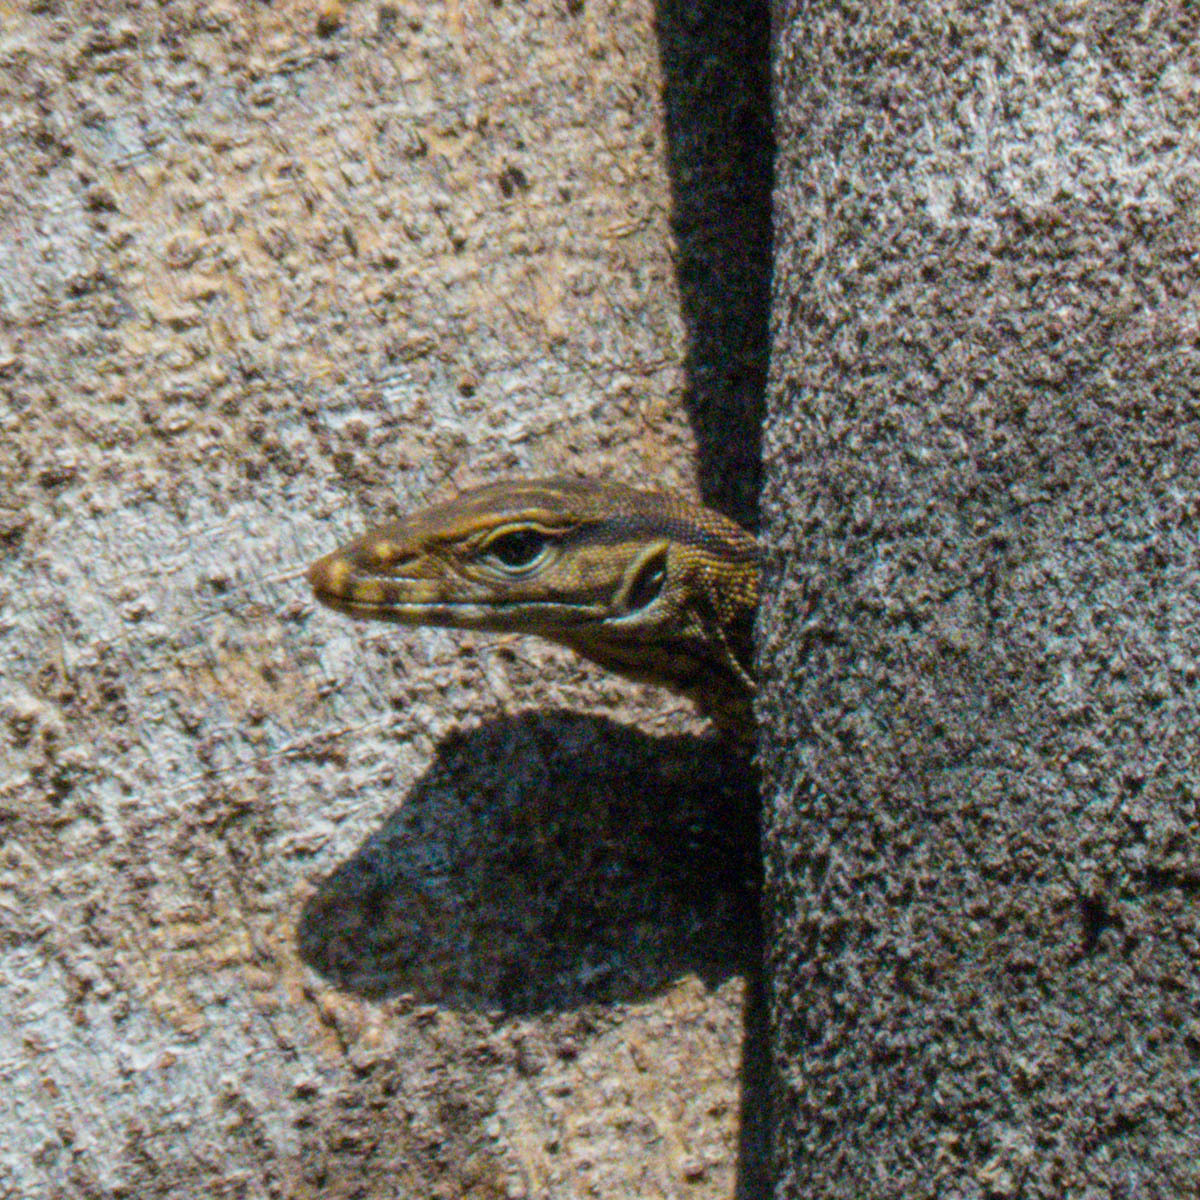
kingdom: Animalia
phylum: Chordata
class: Squamata
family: Varanidae
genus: Varanus
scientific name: Varanus nebulosus
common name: Clouded monitor
